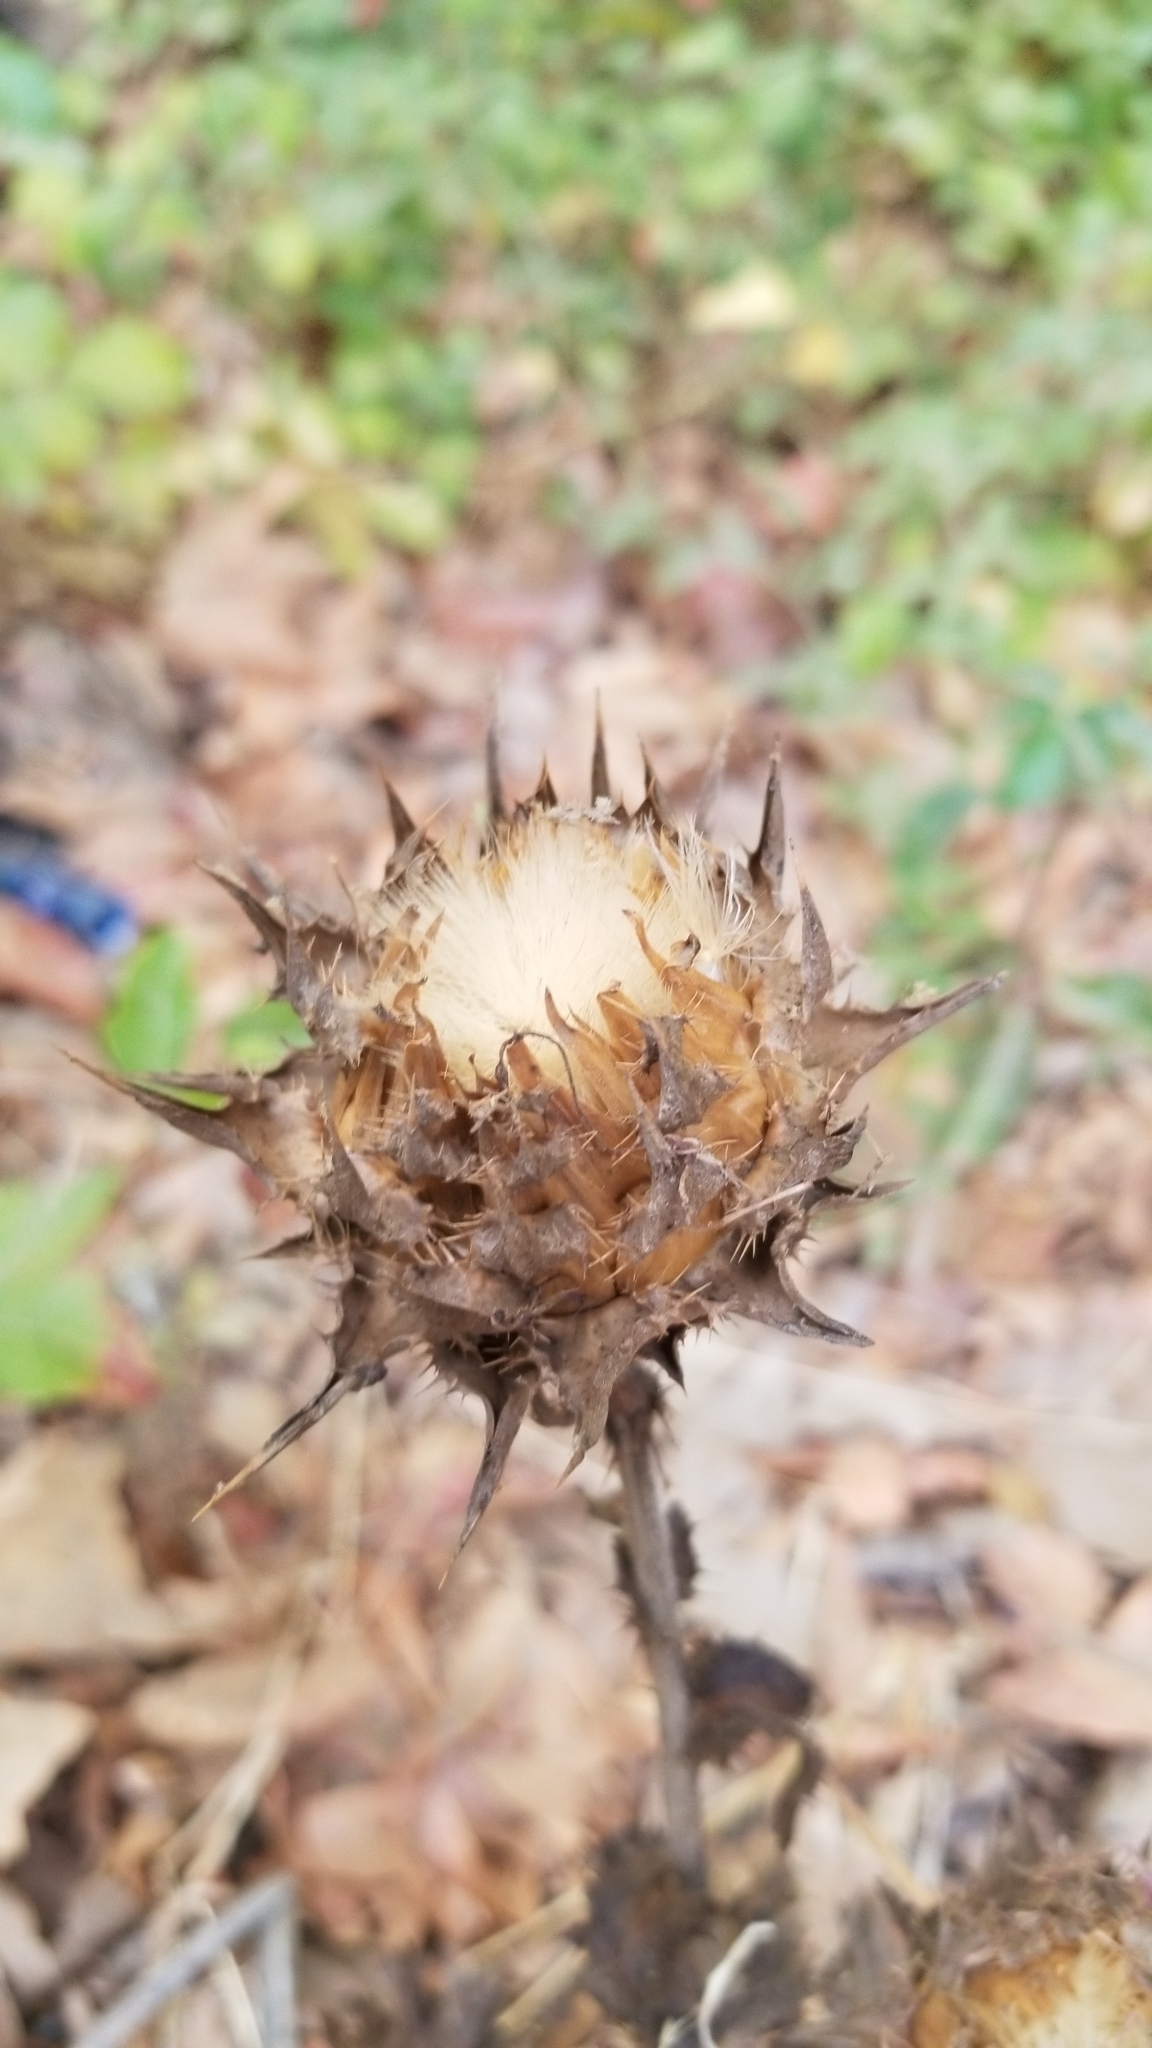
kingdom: Plantae
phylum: Tracheophyta
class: Magnoliopsida
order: Asterales
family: Asteraceae
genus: Silybum
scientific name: Silybum marianum
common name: Milk thistle
